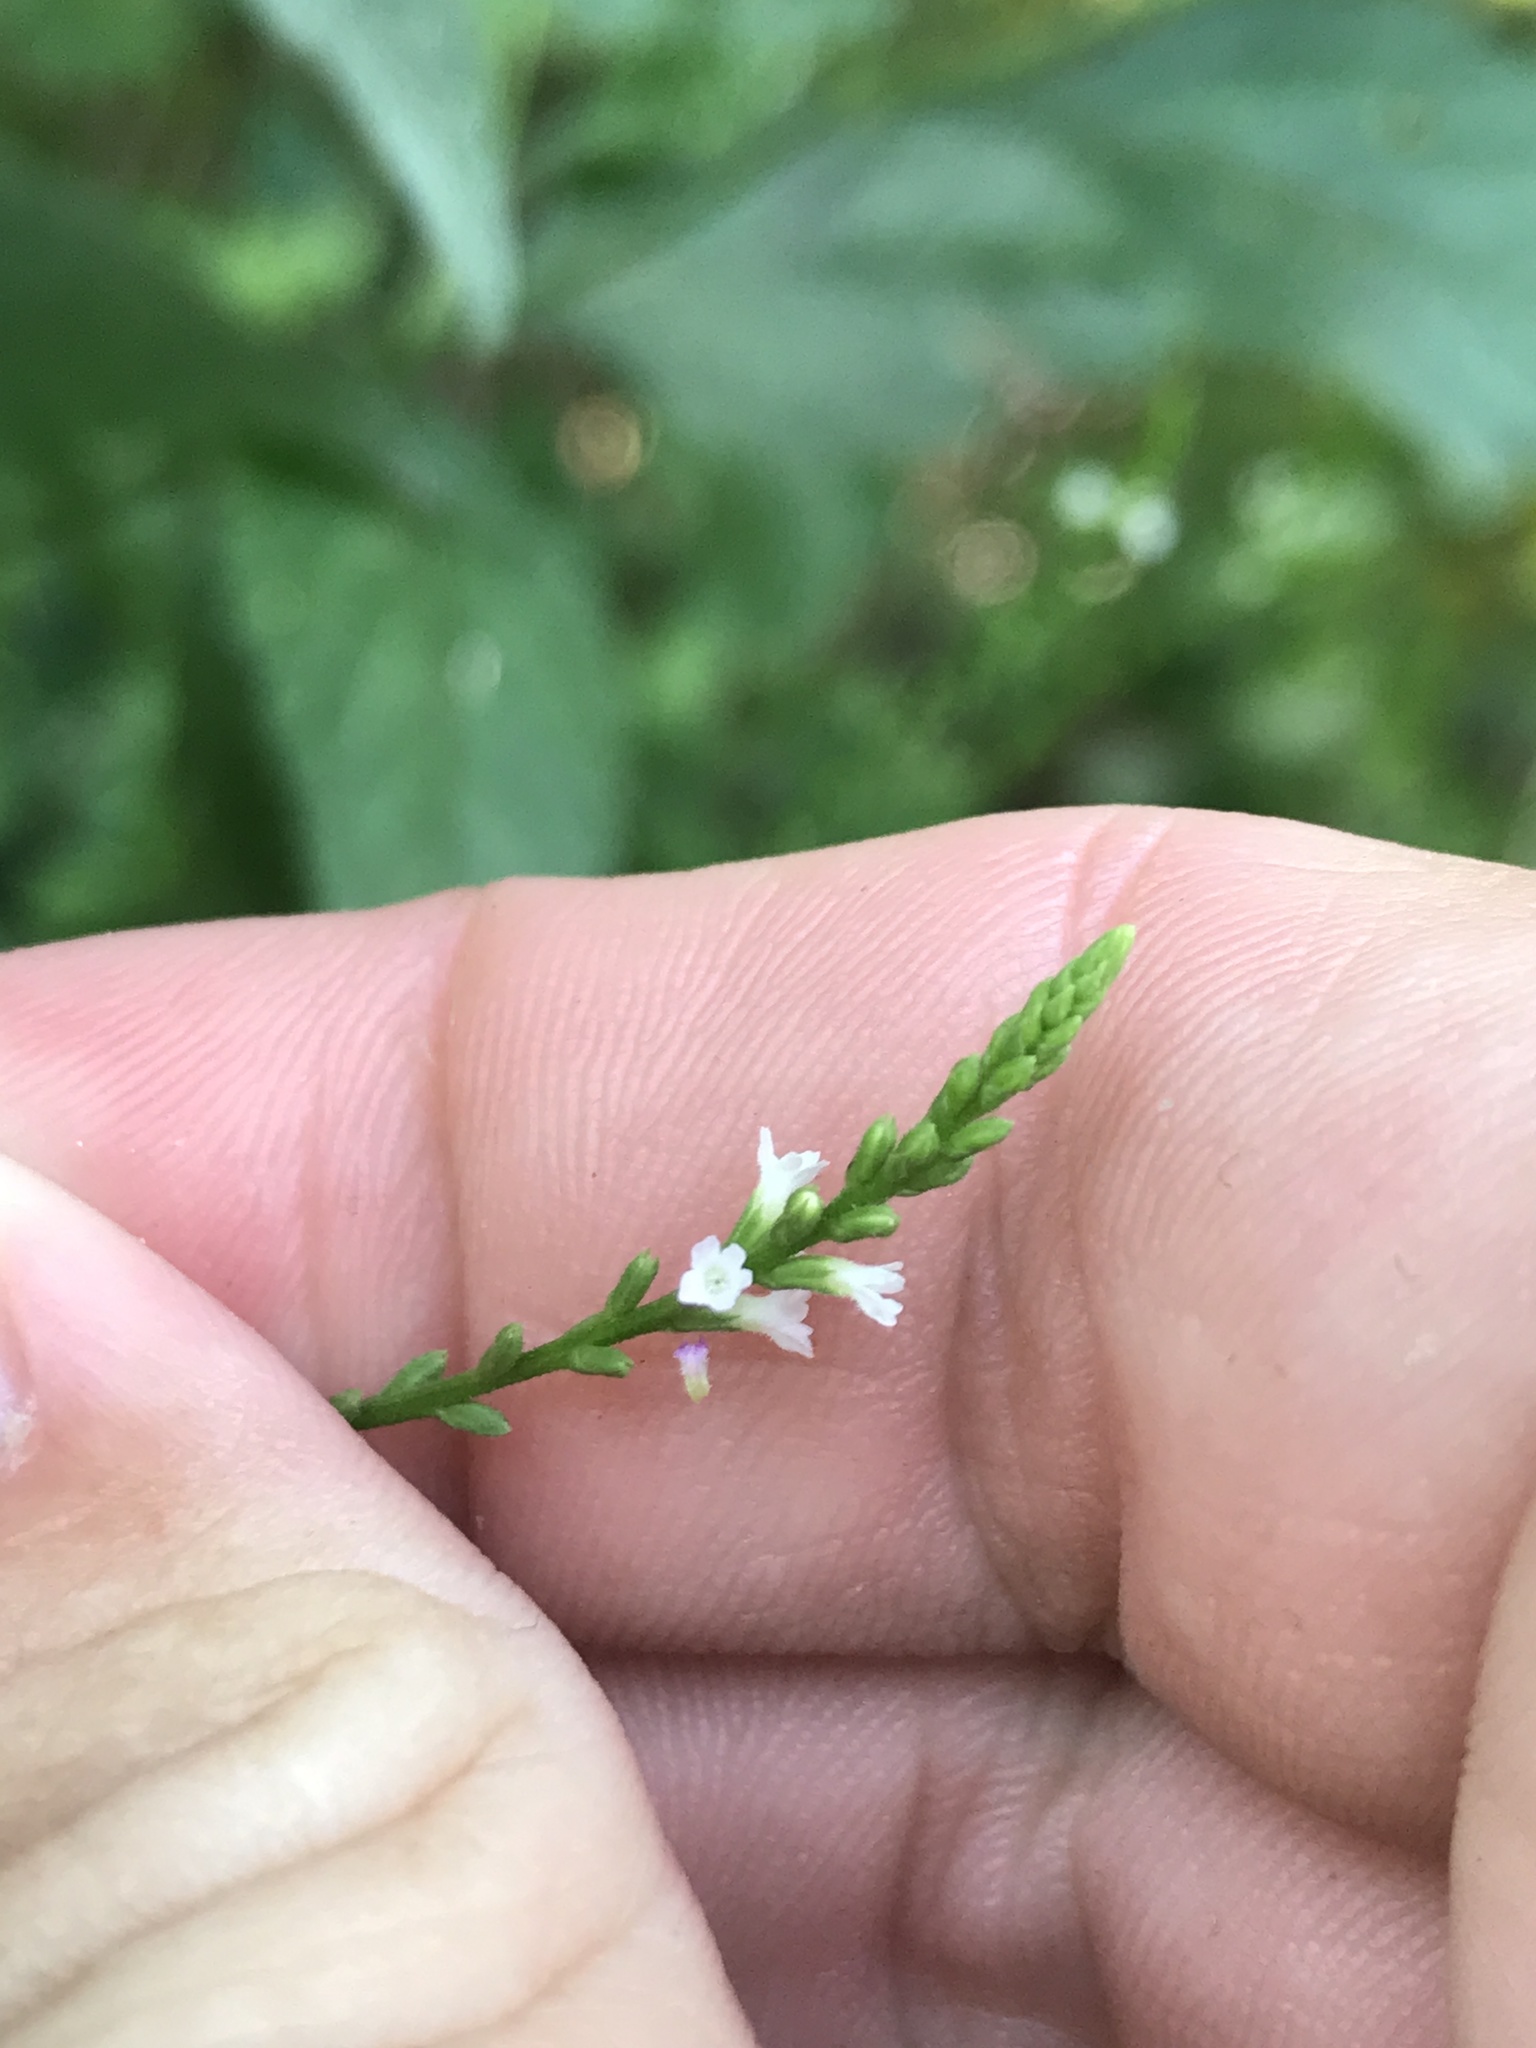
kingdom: Plantae
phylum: Tracheophyta
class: Magnoliopsida
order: Lamiales
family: Verbenaceae
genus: Verbena
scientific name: Verbena urticifolia
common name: Nettle-leaved vervain
